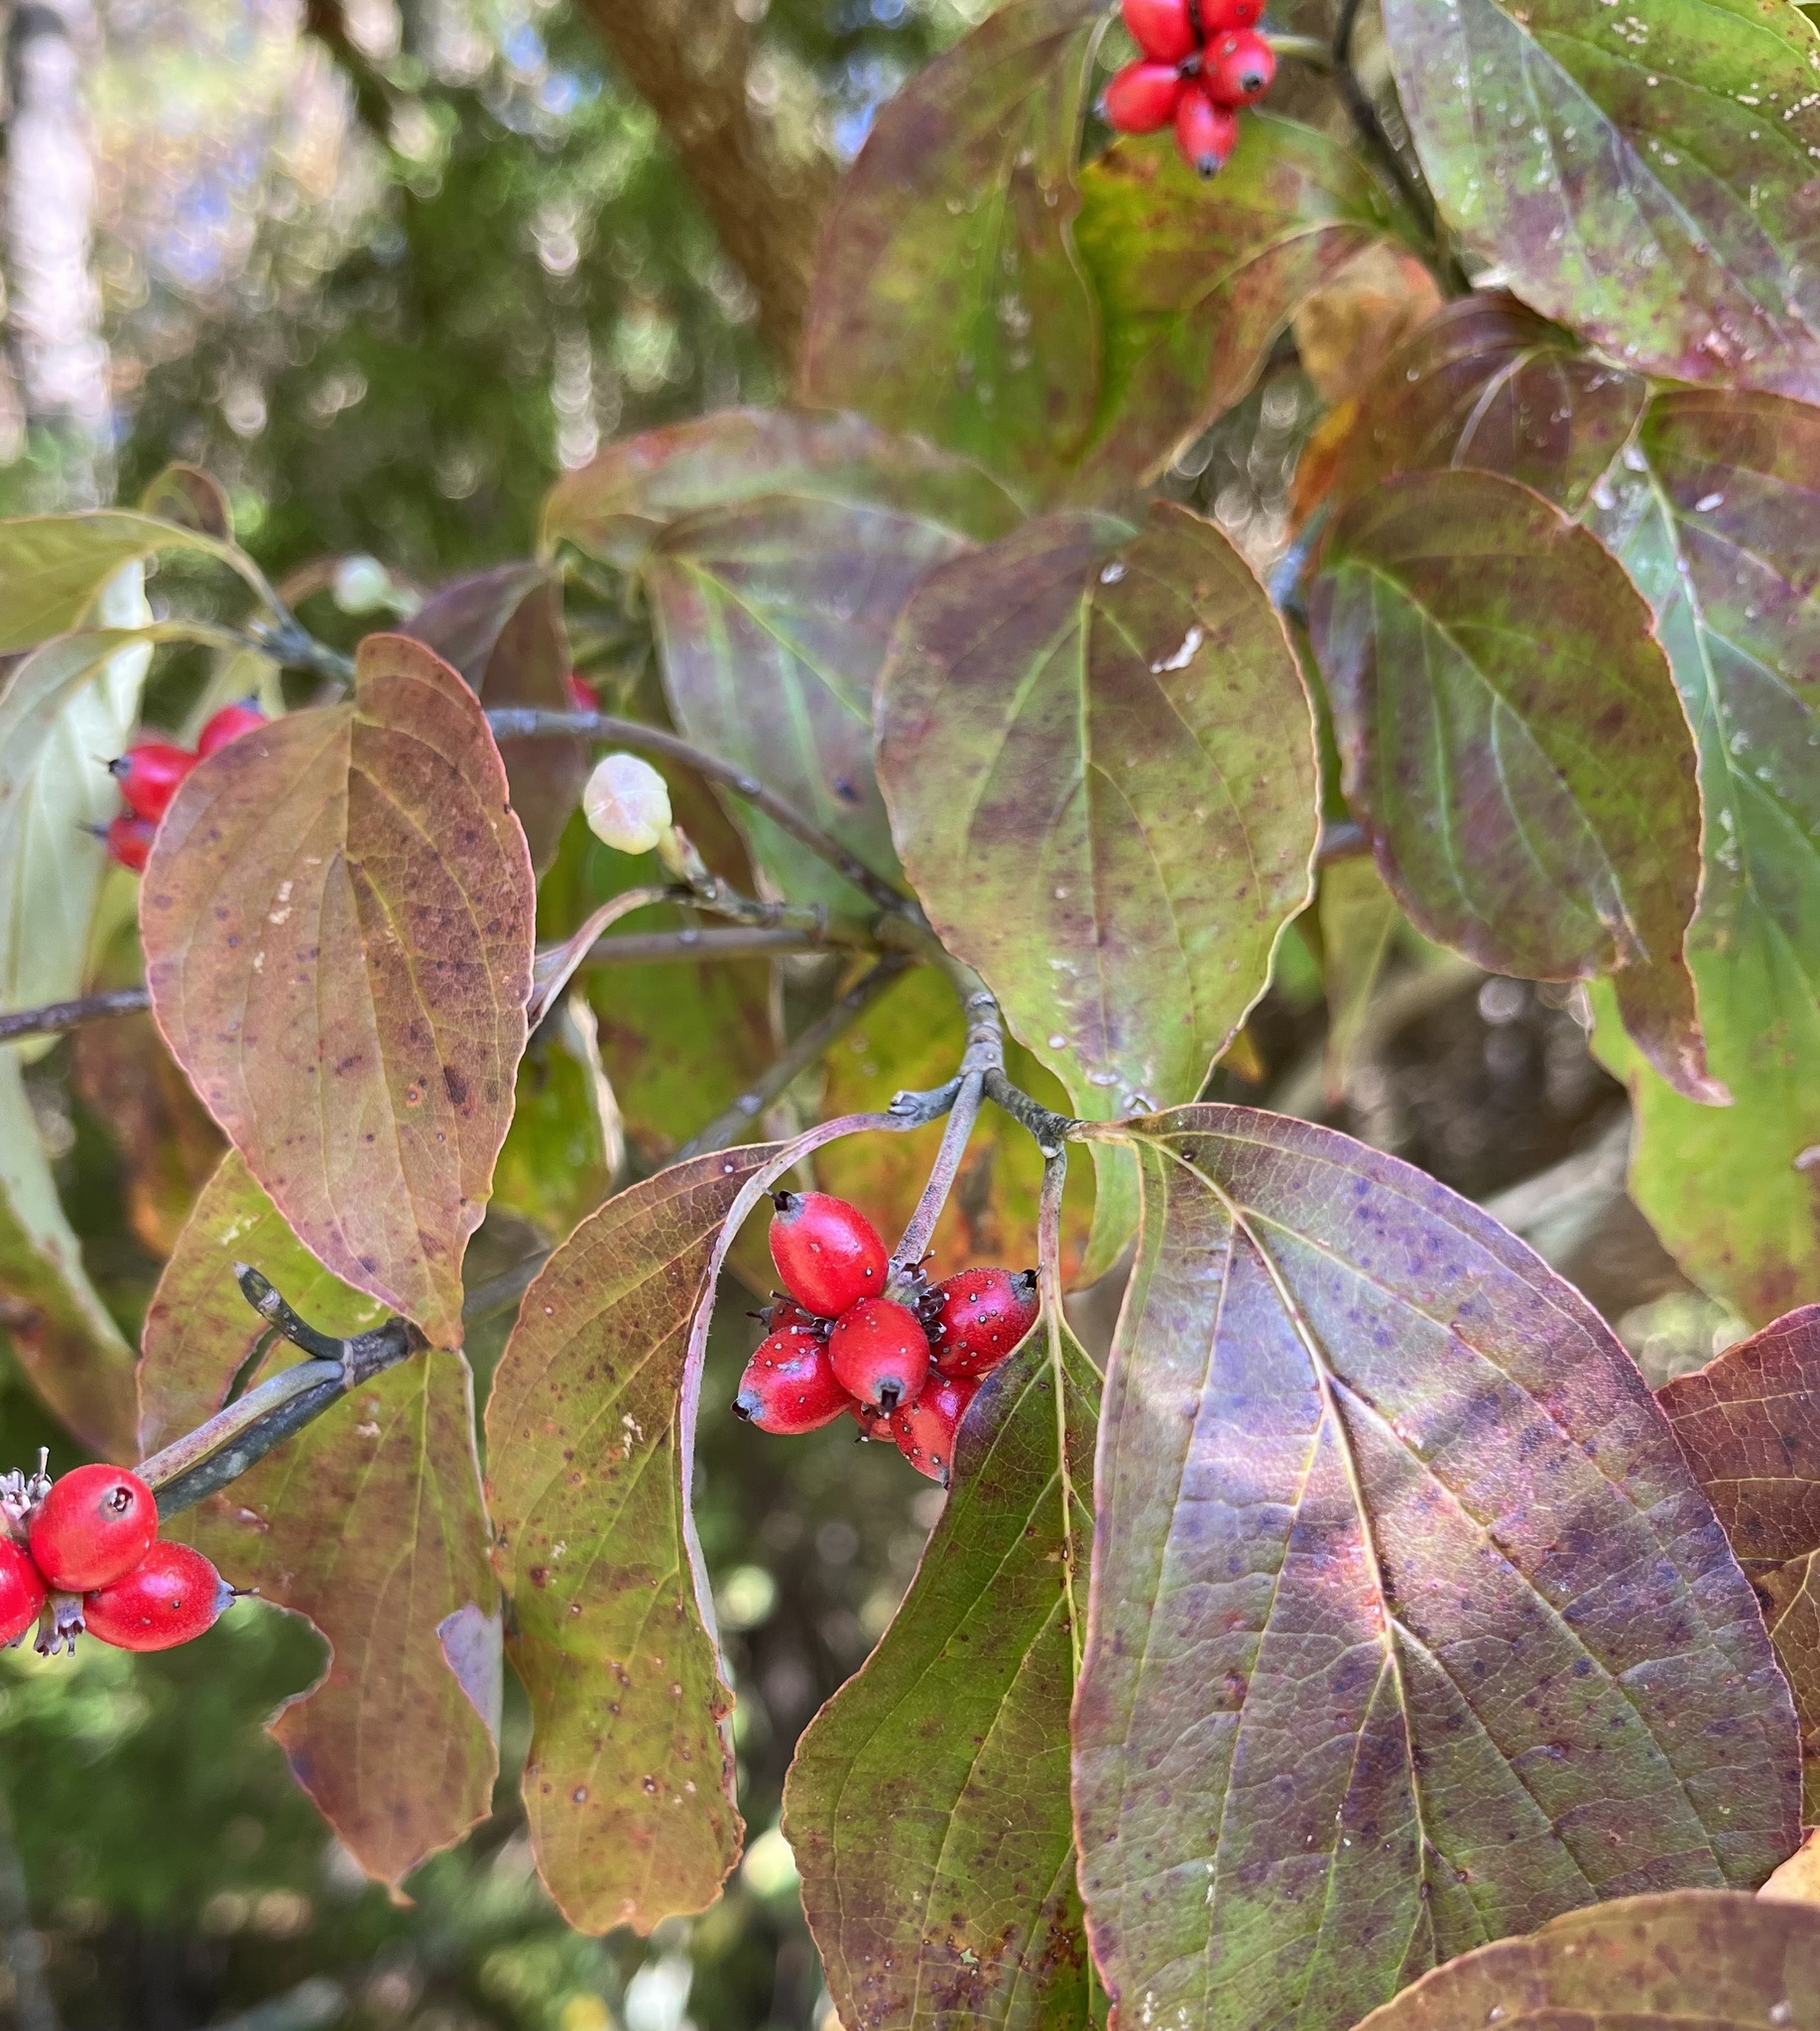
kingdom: Plantae
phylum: Tracheophyta
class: Magnoliopsida
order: Cornales
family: Cornaceae
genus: Cornus
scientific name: Cornus florida
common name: Flowering dogwood
